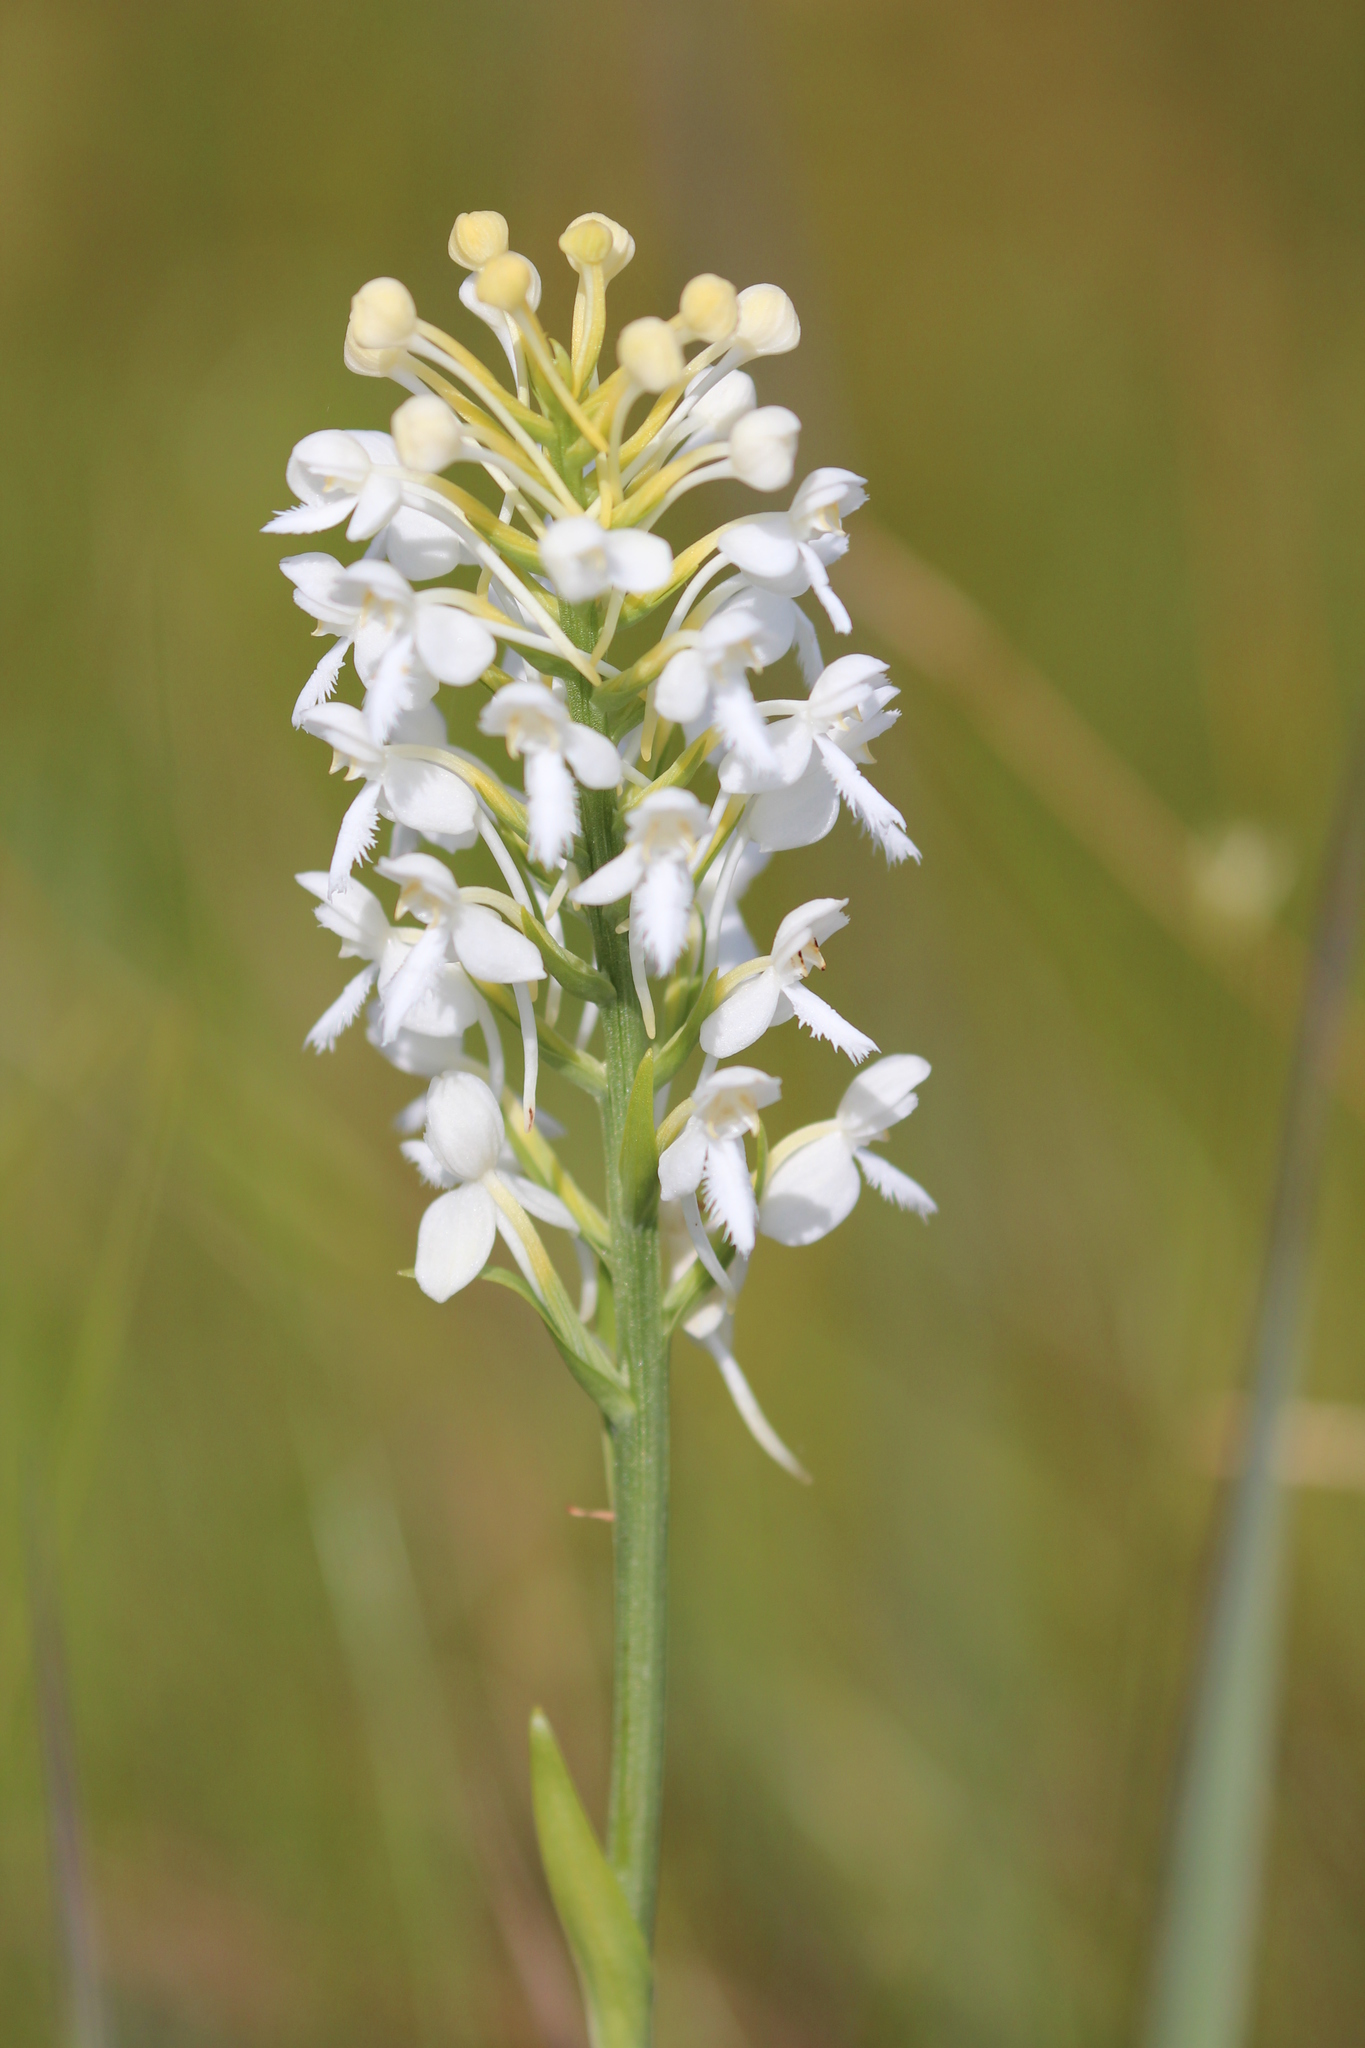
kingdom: Plantae
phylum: Tracheophyta
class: Liliopsida
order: Asparagales
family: Orchidaceae
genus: Platanthera
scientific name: Platanthera blephariglottis
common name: White fringed orchid
